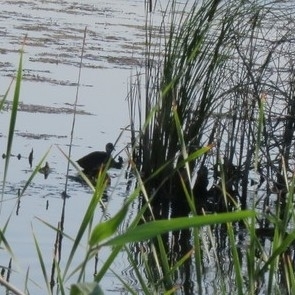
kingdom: Animalia
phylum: Chordata
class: Aves
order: Gruiformes
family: Rallidae
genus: Fulica
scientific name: Fulica atra
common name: Eurasian coot
